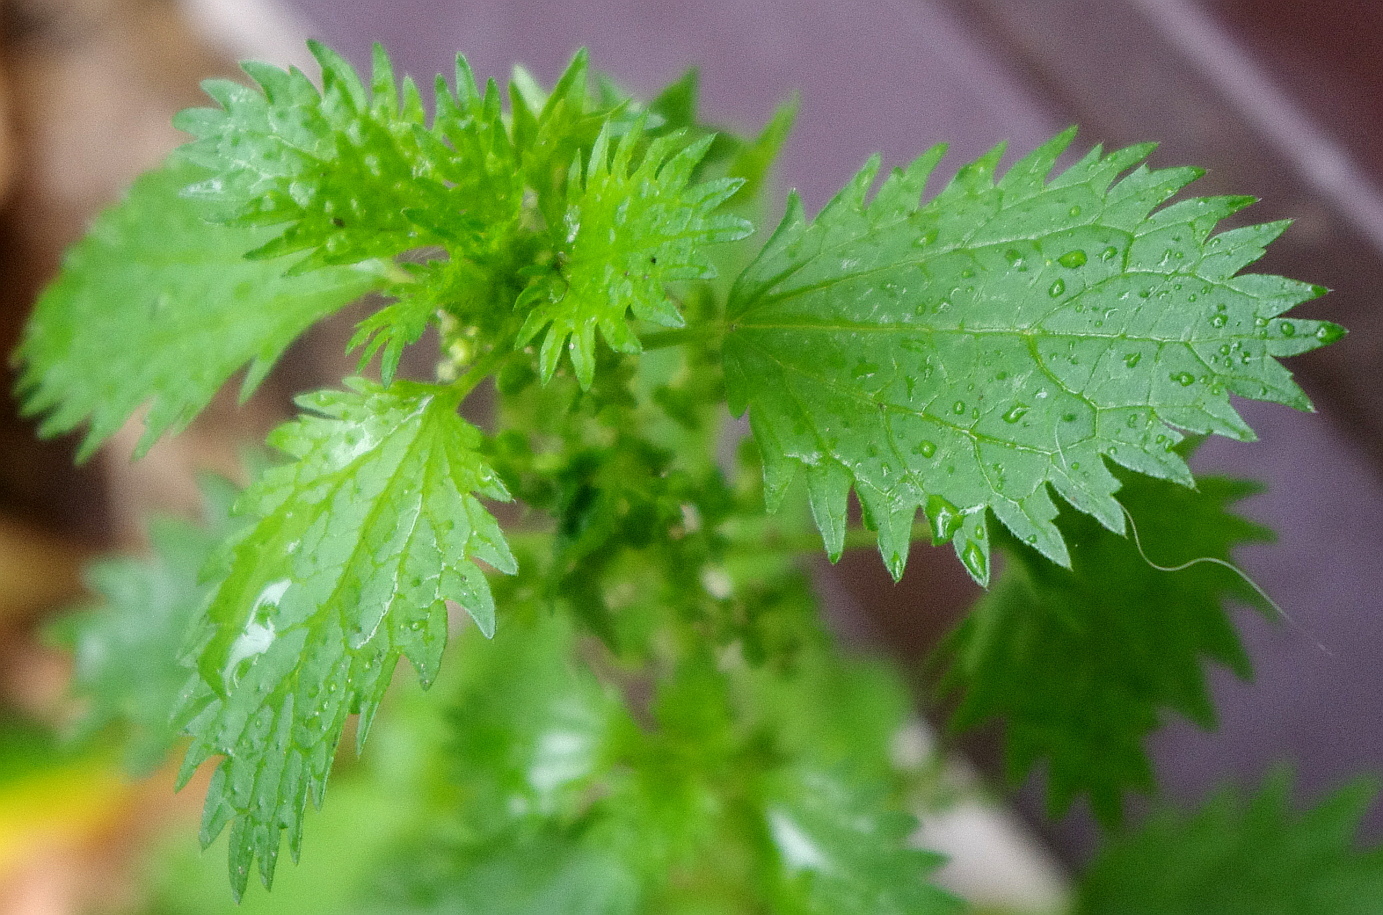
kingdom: Plantae
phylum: Tracheophyta
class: Magnoliopsida
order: Rosales
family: Urticaceae
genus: Urtica
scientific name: Urtica urens
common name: Dwarf nettle
